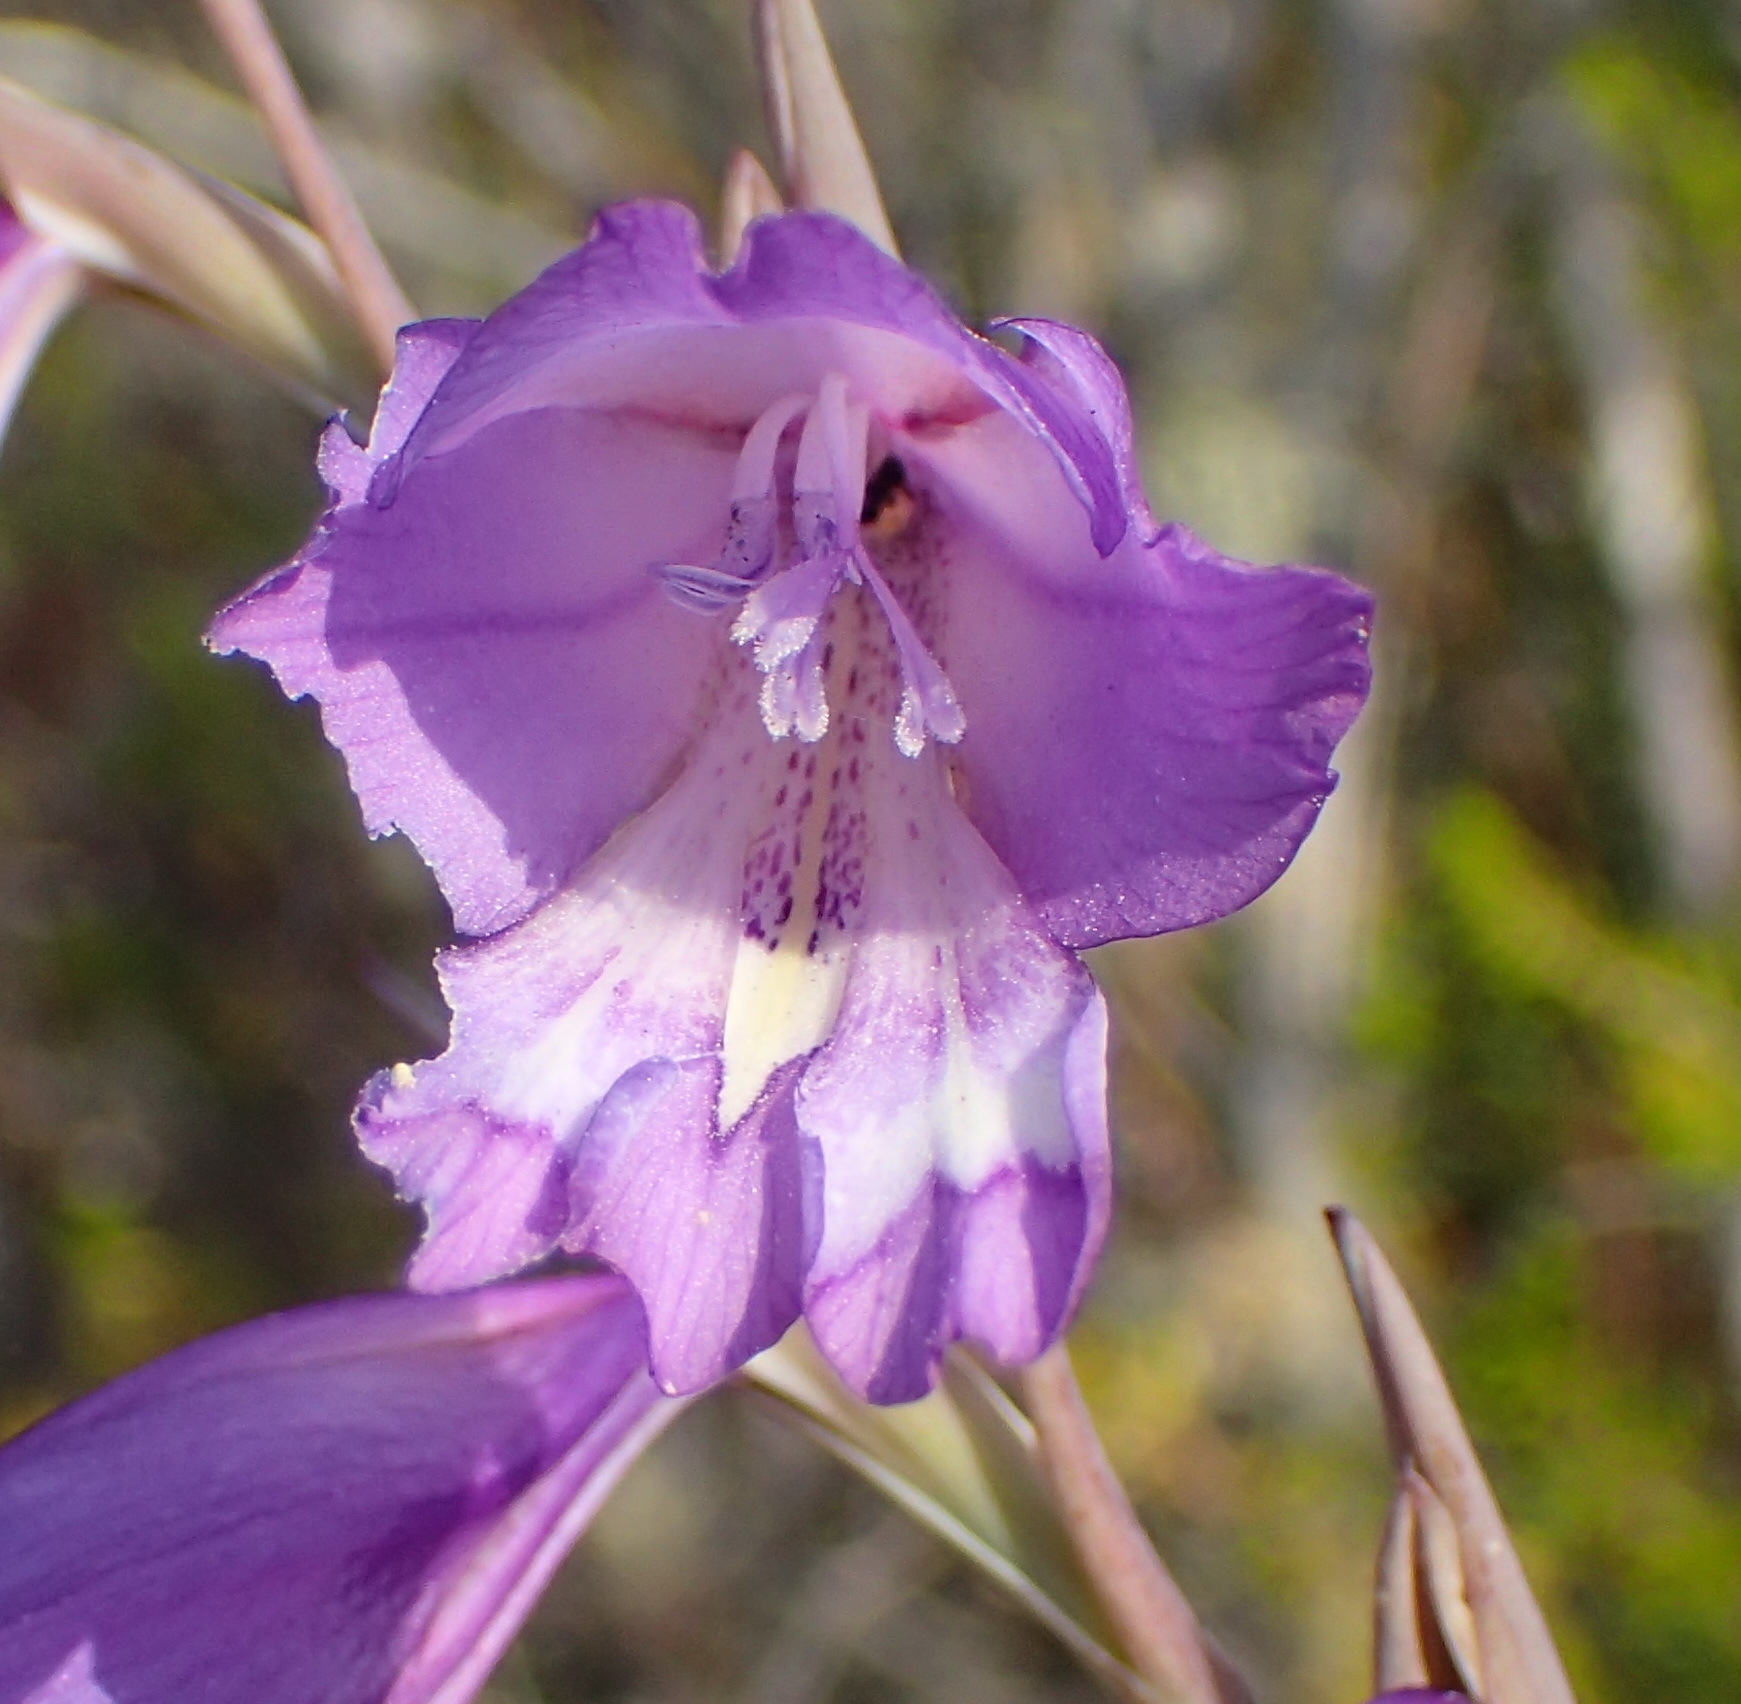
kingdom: Plantae
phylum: Tracheophyta
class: Liliopsida
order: Asparagales
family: Iridaceae
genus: Gladiolus
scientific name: Gladiolus rogersii
